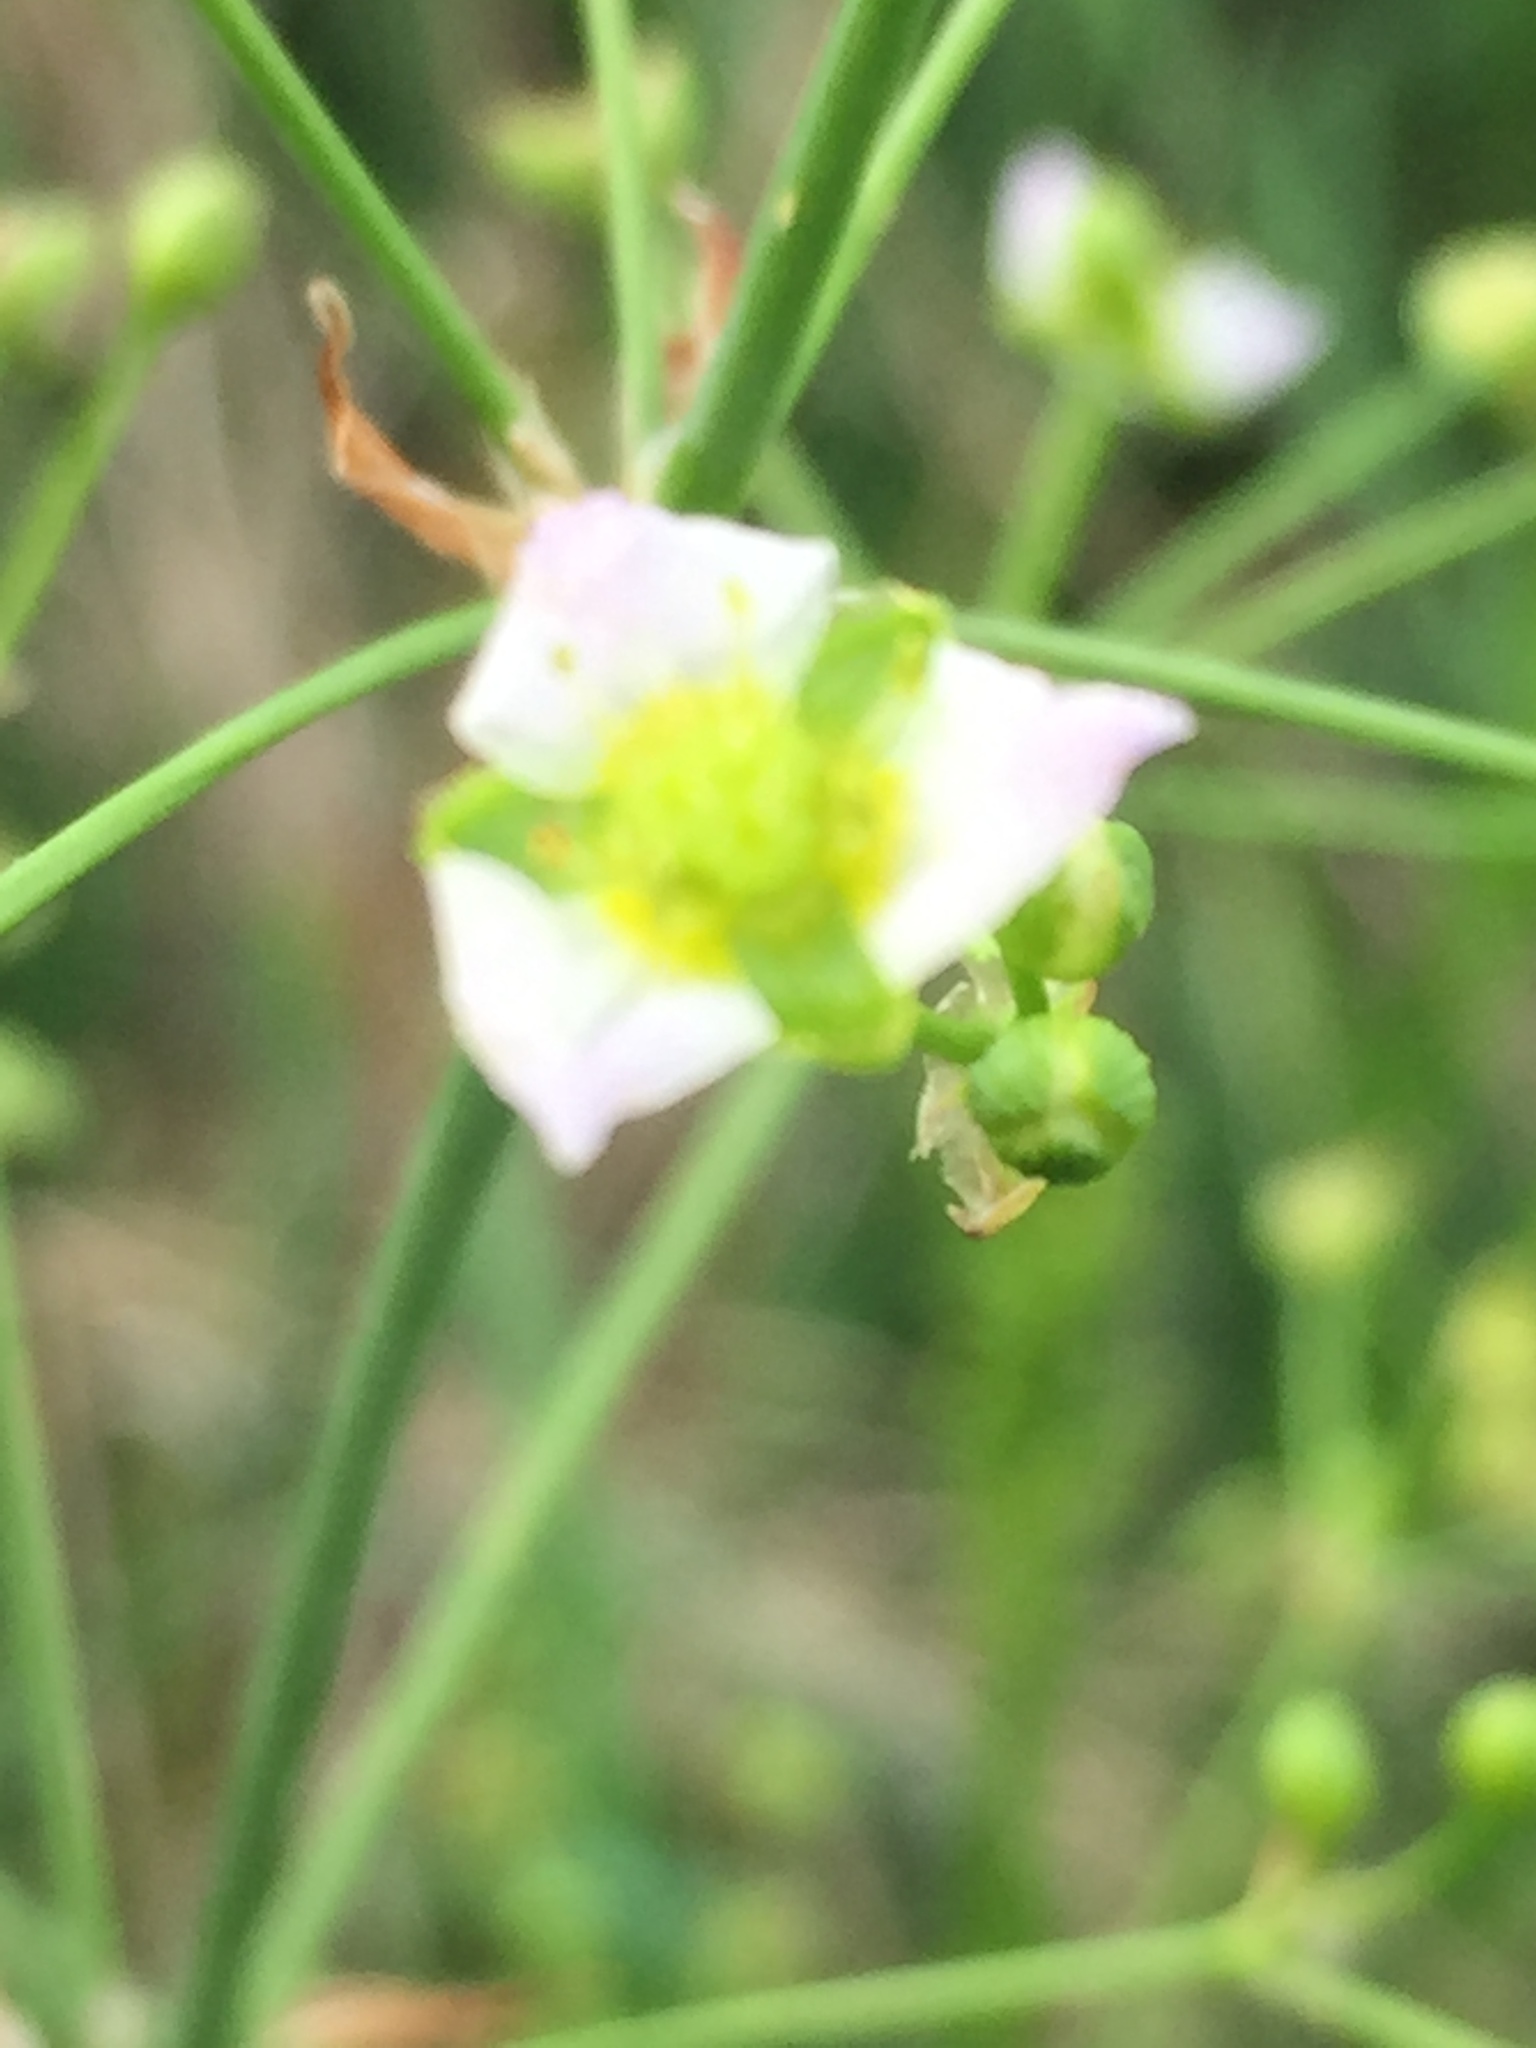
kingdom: Plantae
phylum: Tracheophyta
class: Liliopsida
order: Alismatales
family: Alismataceae
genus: Alisma
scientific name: Alisma plantago-aquatica
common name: Water-plantain
